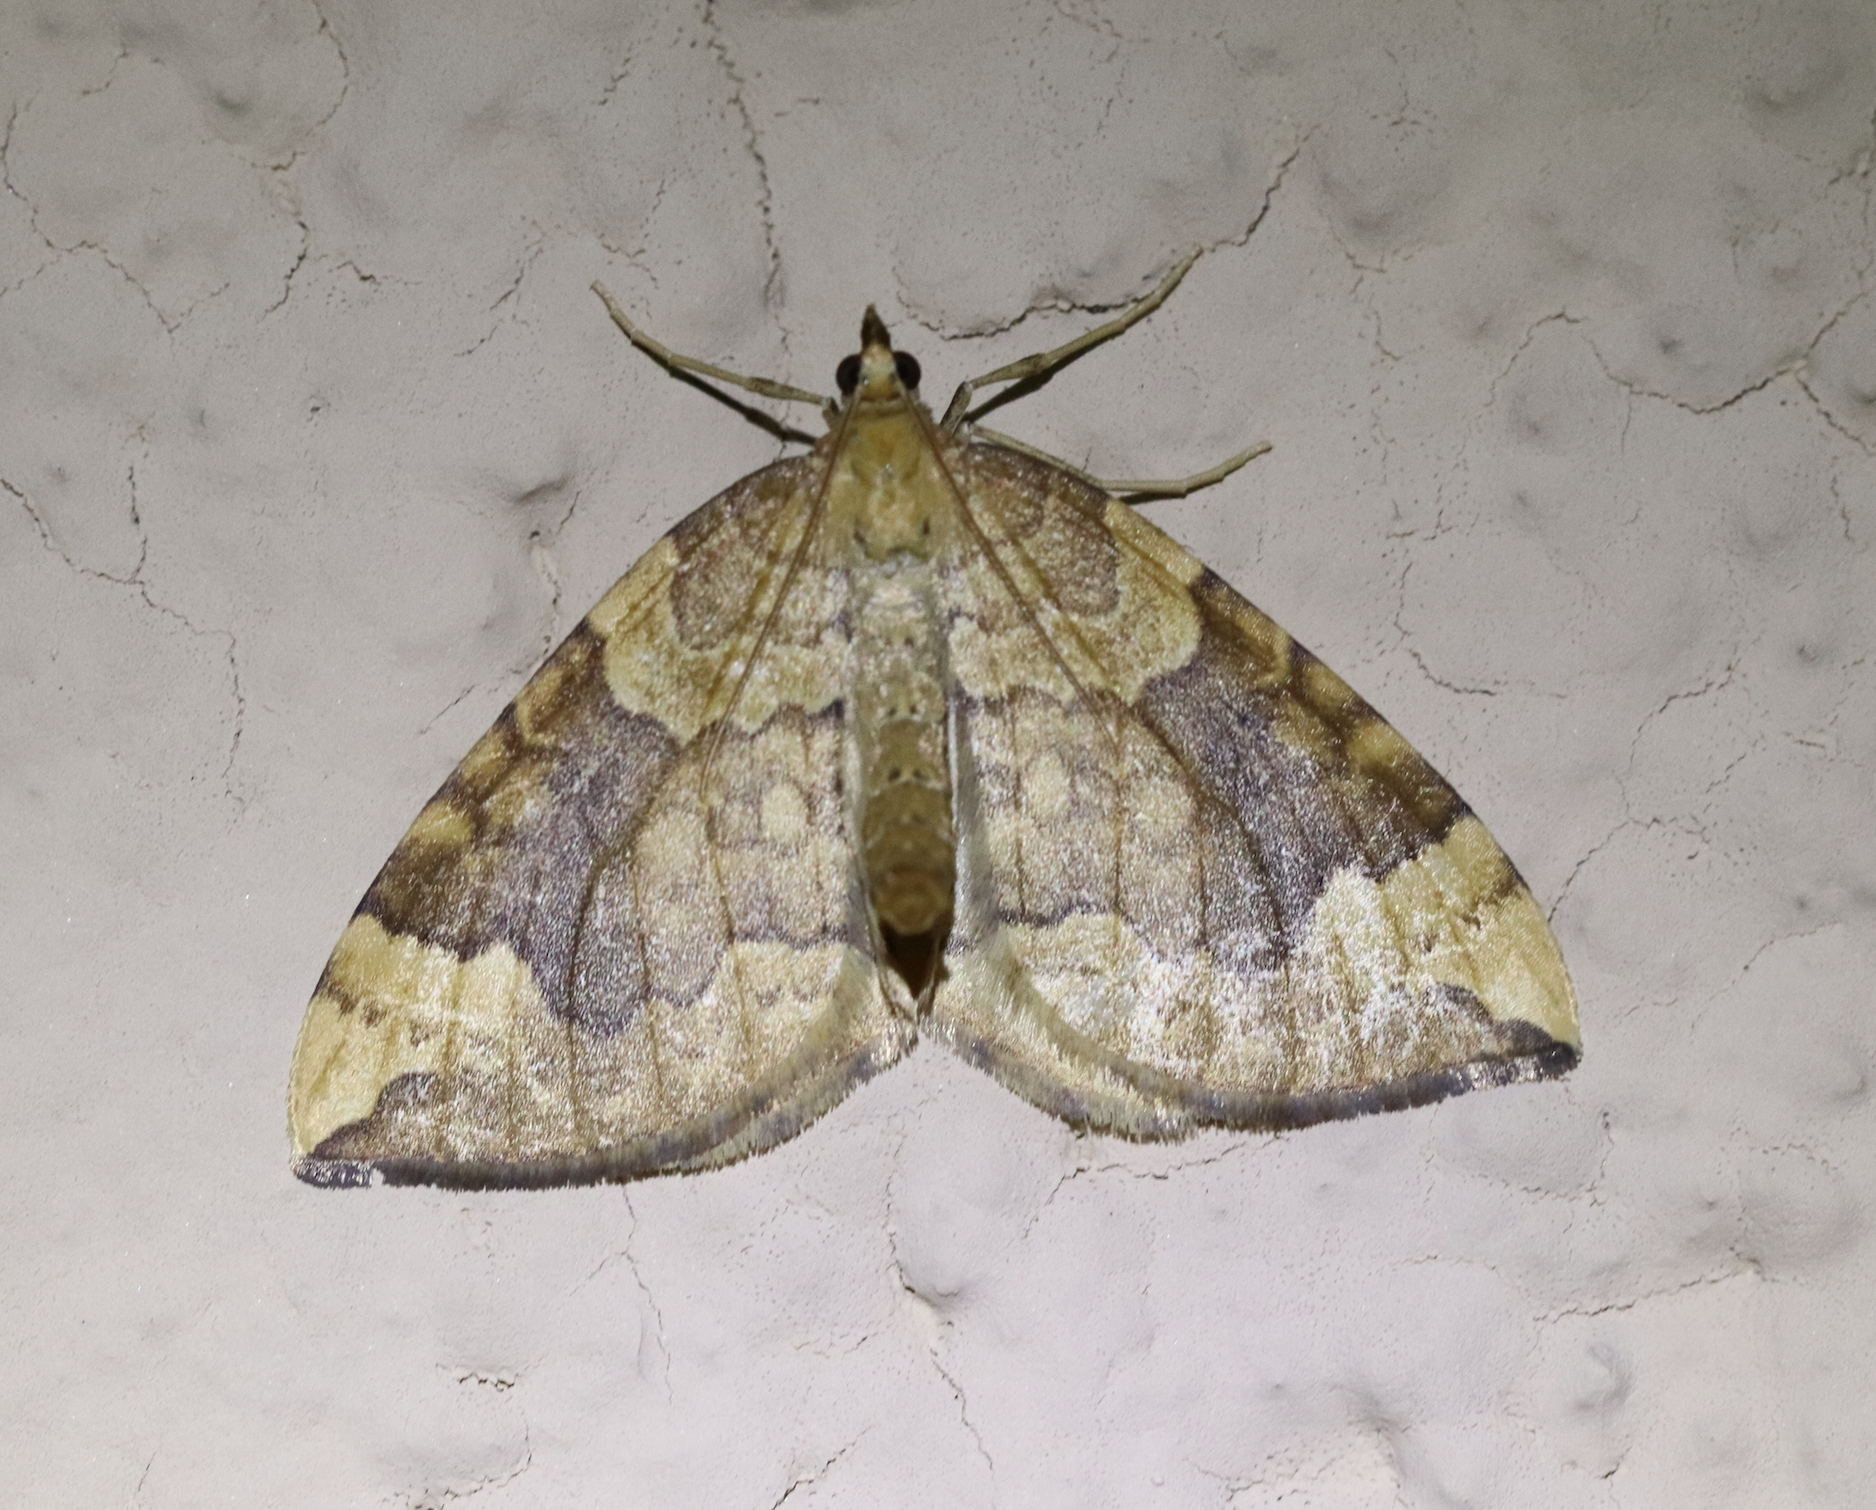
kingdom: Animalia
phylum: Arthropoda
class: Insecta
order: Lepidoptera
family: Geometridae
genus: Eulithis
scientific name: Eulithis populata
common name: Northern spinach
